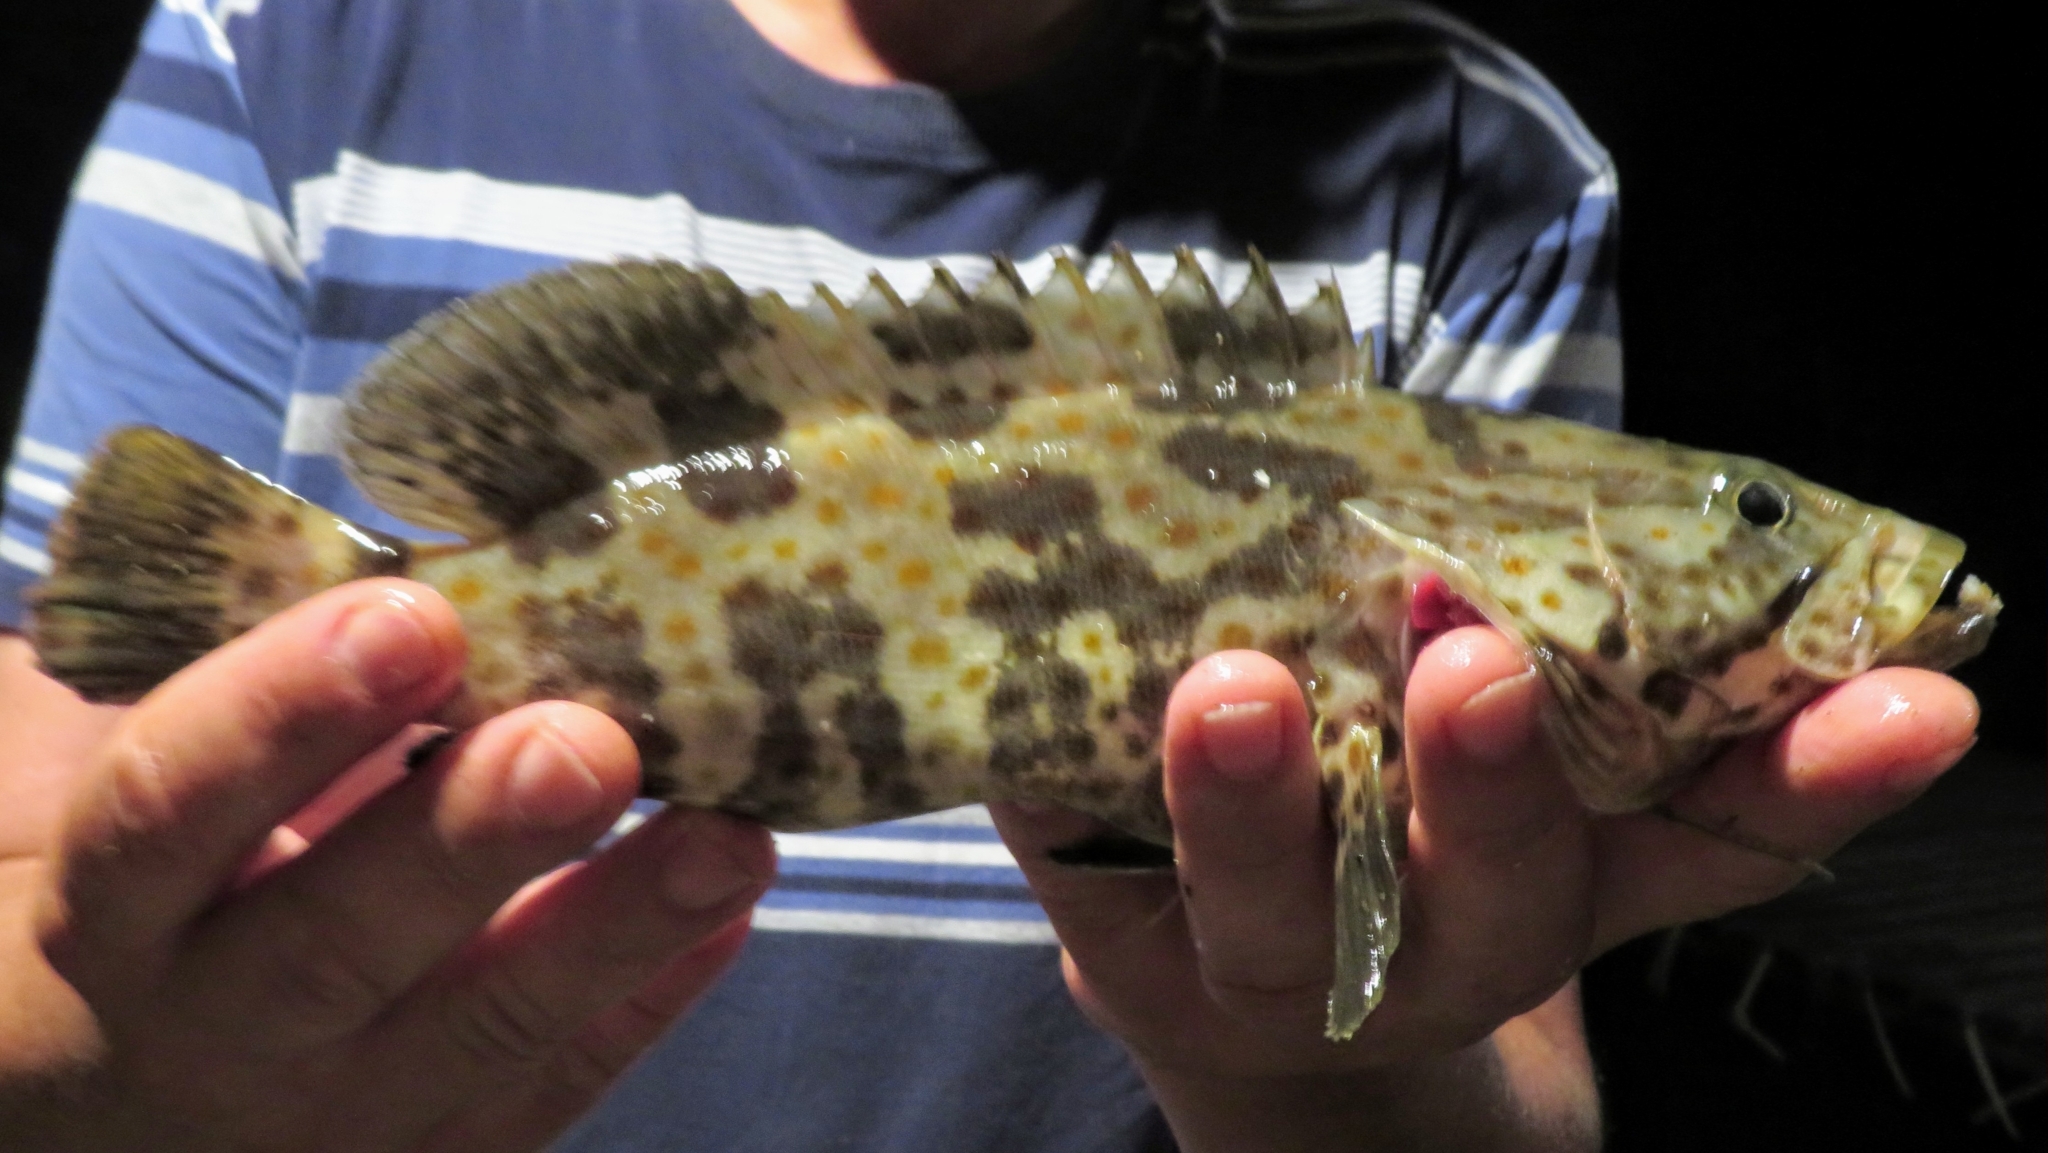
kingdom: Animalia
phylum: Chordata
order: Perciformes
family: Serranidae
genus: Epinephelus
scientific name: Epinephelus coioides
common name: Orange-spotted grouper
